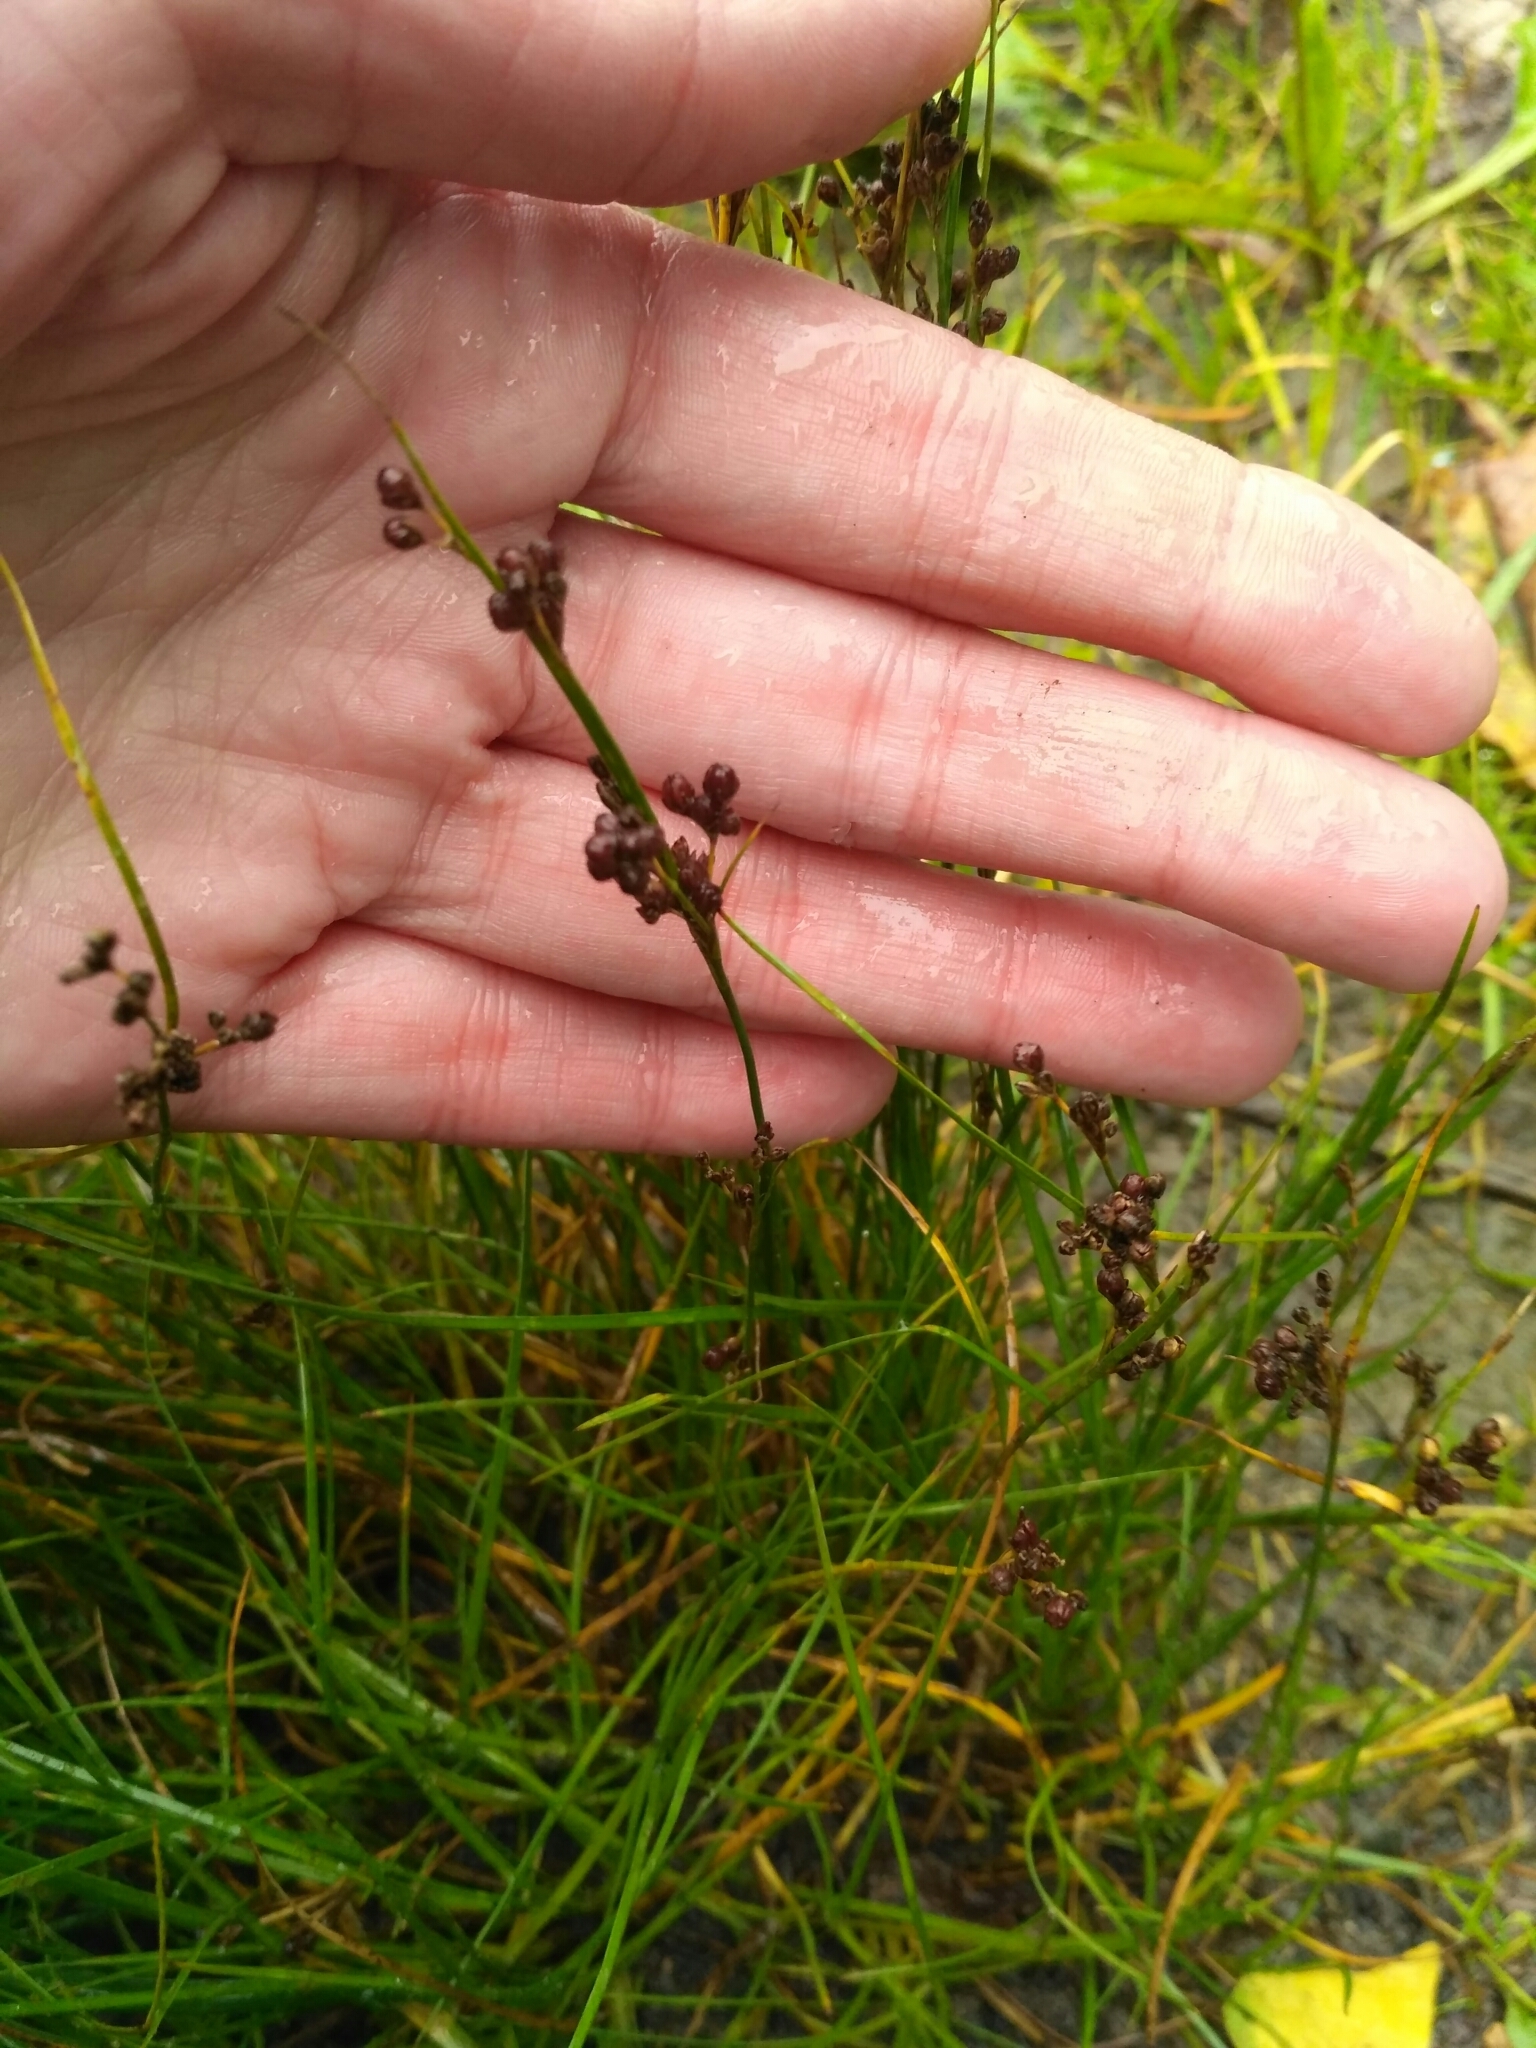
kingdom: Plantae
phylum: Tracheophyta
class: Liliopsida
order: Poales
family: Juncaceae
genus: Juncus
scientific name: Juncus compressus
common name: Round-fruited rush
